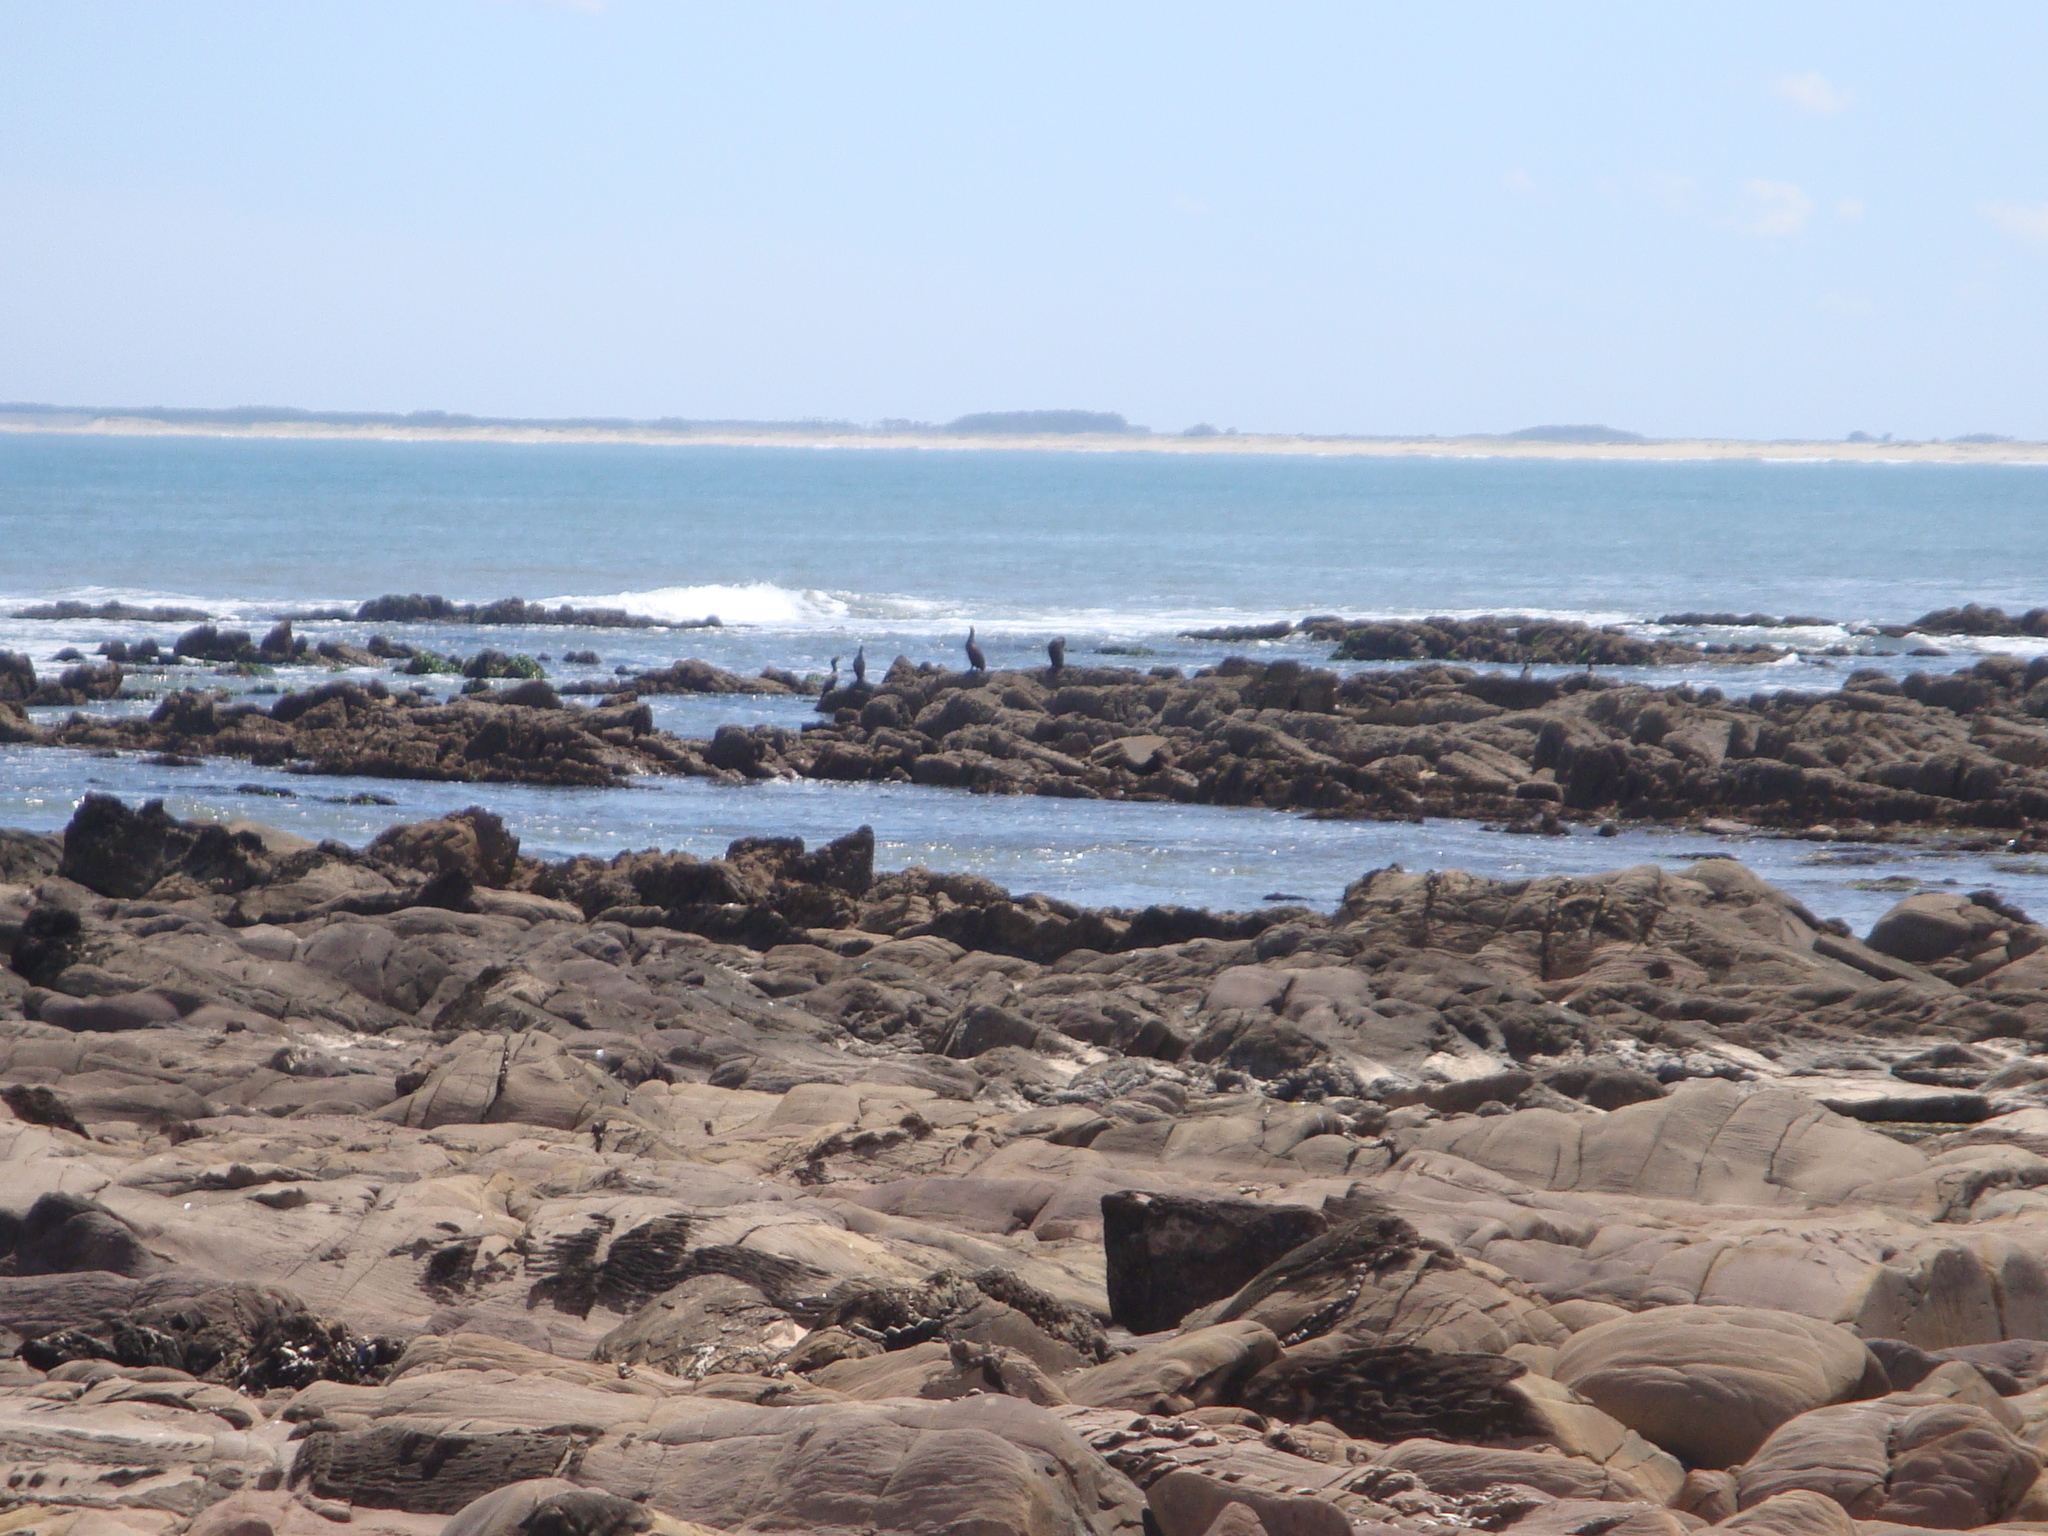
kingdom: Animalia
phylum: Chordata
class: Aves
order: Suliformes
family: Phalacrocoracidae
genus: Phalacrocorax
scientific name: Phalacrocorax brasilianus
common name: Neotropic cormorant
